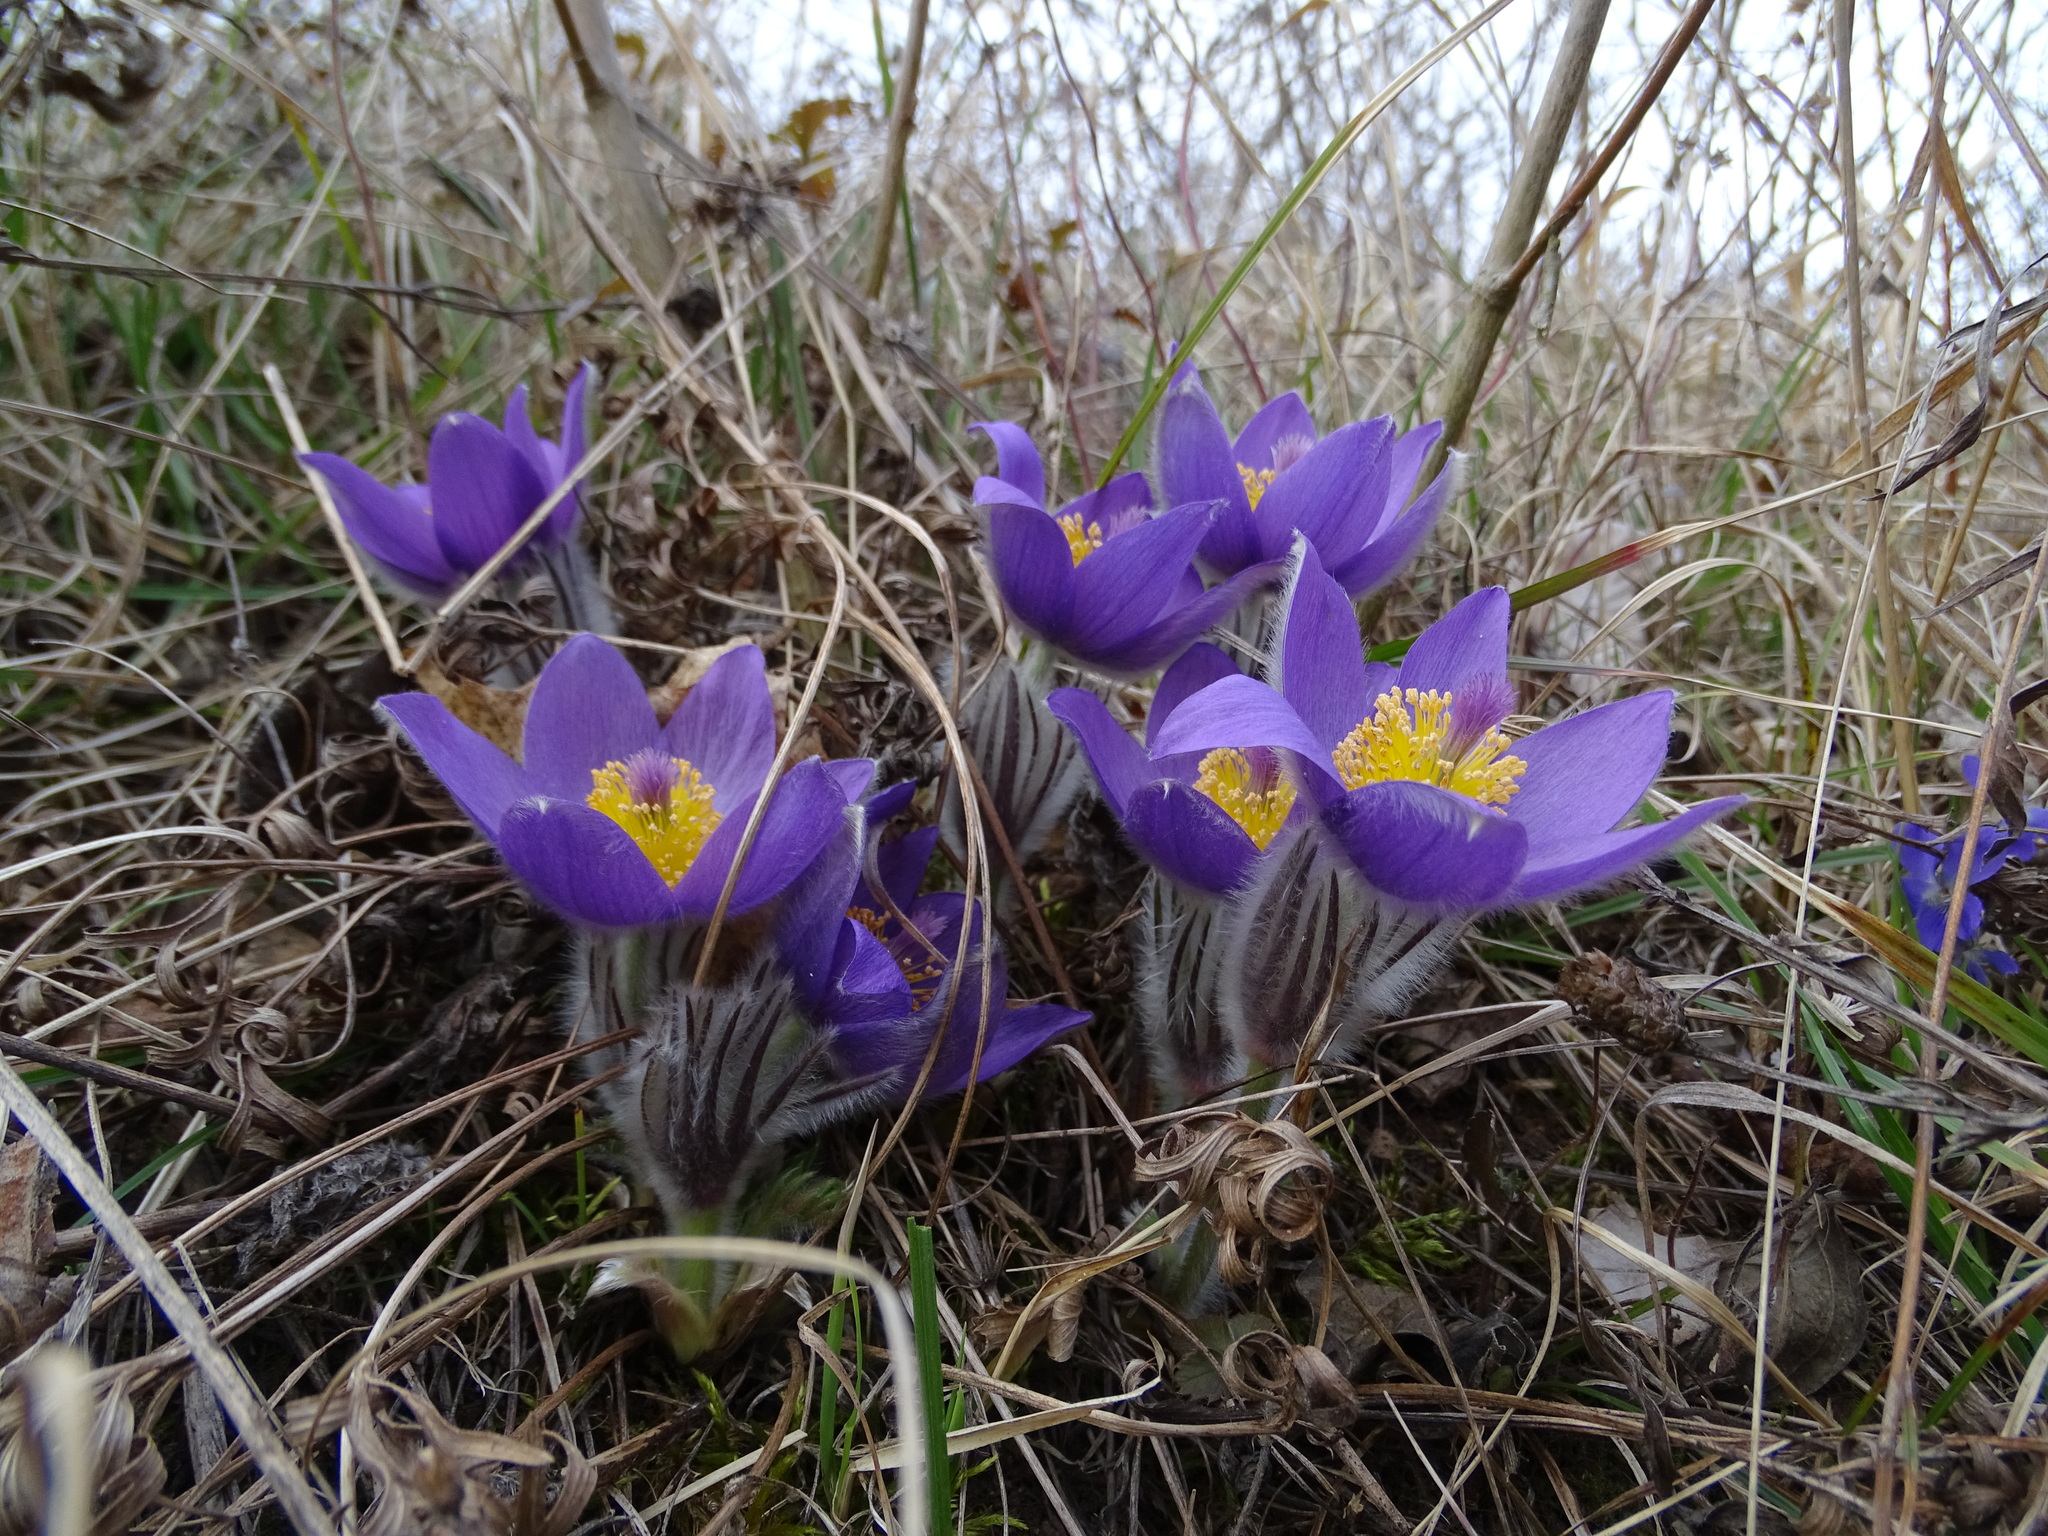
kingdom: Plantae
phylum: Tracheophyta
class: Magnoliopsida
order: Ranunculales
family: Ranunculaceae
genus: Pulsatilla
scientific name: Pulsatilla grandis
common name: Greater pasque flower
